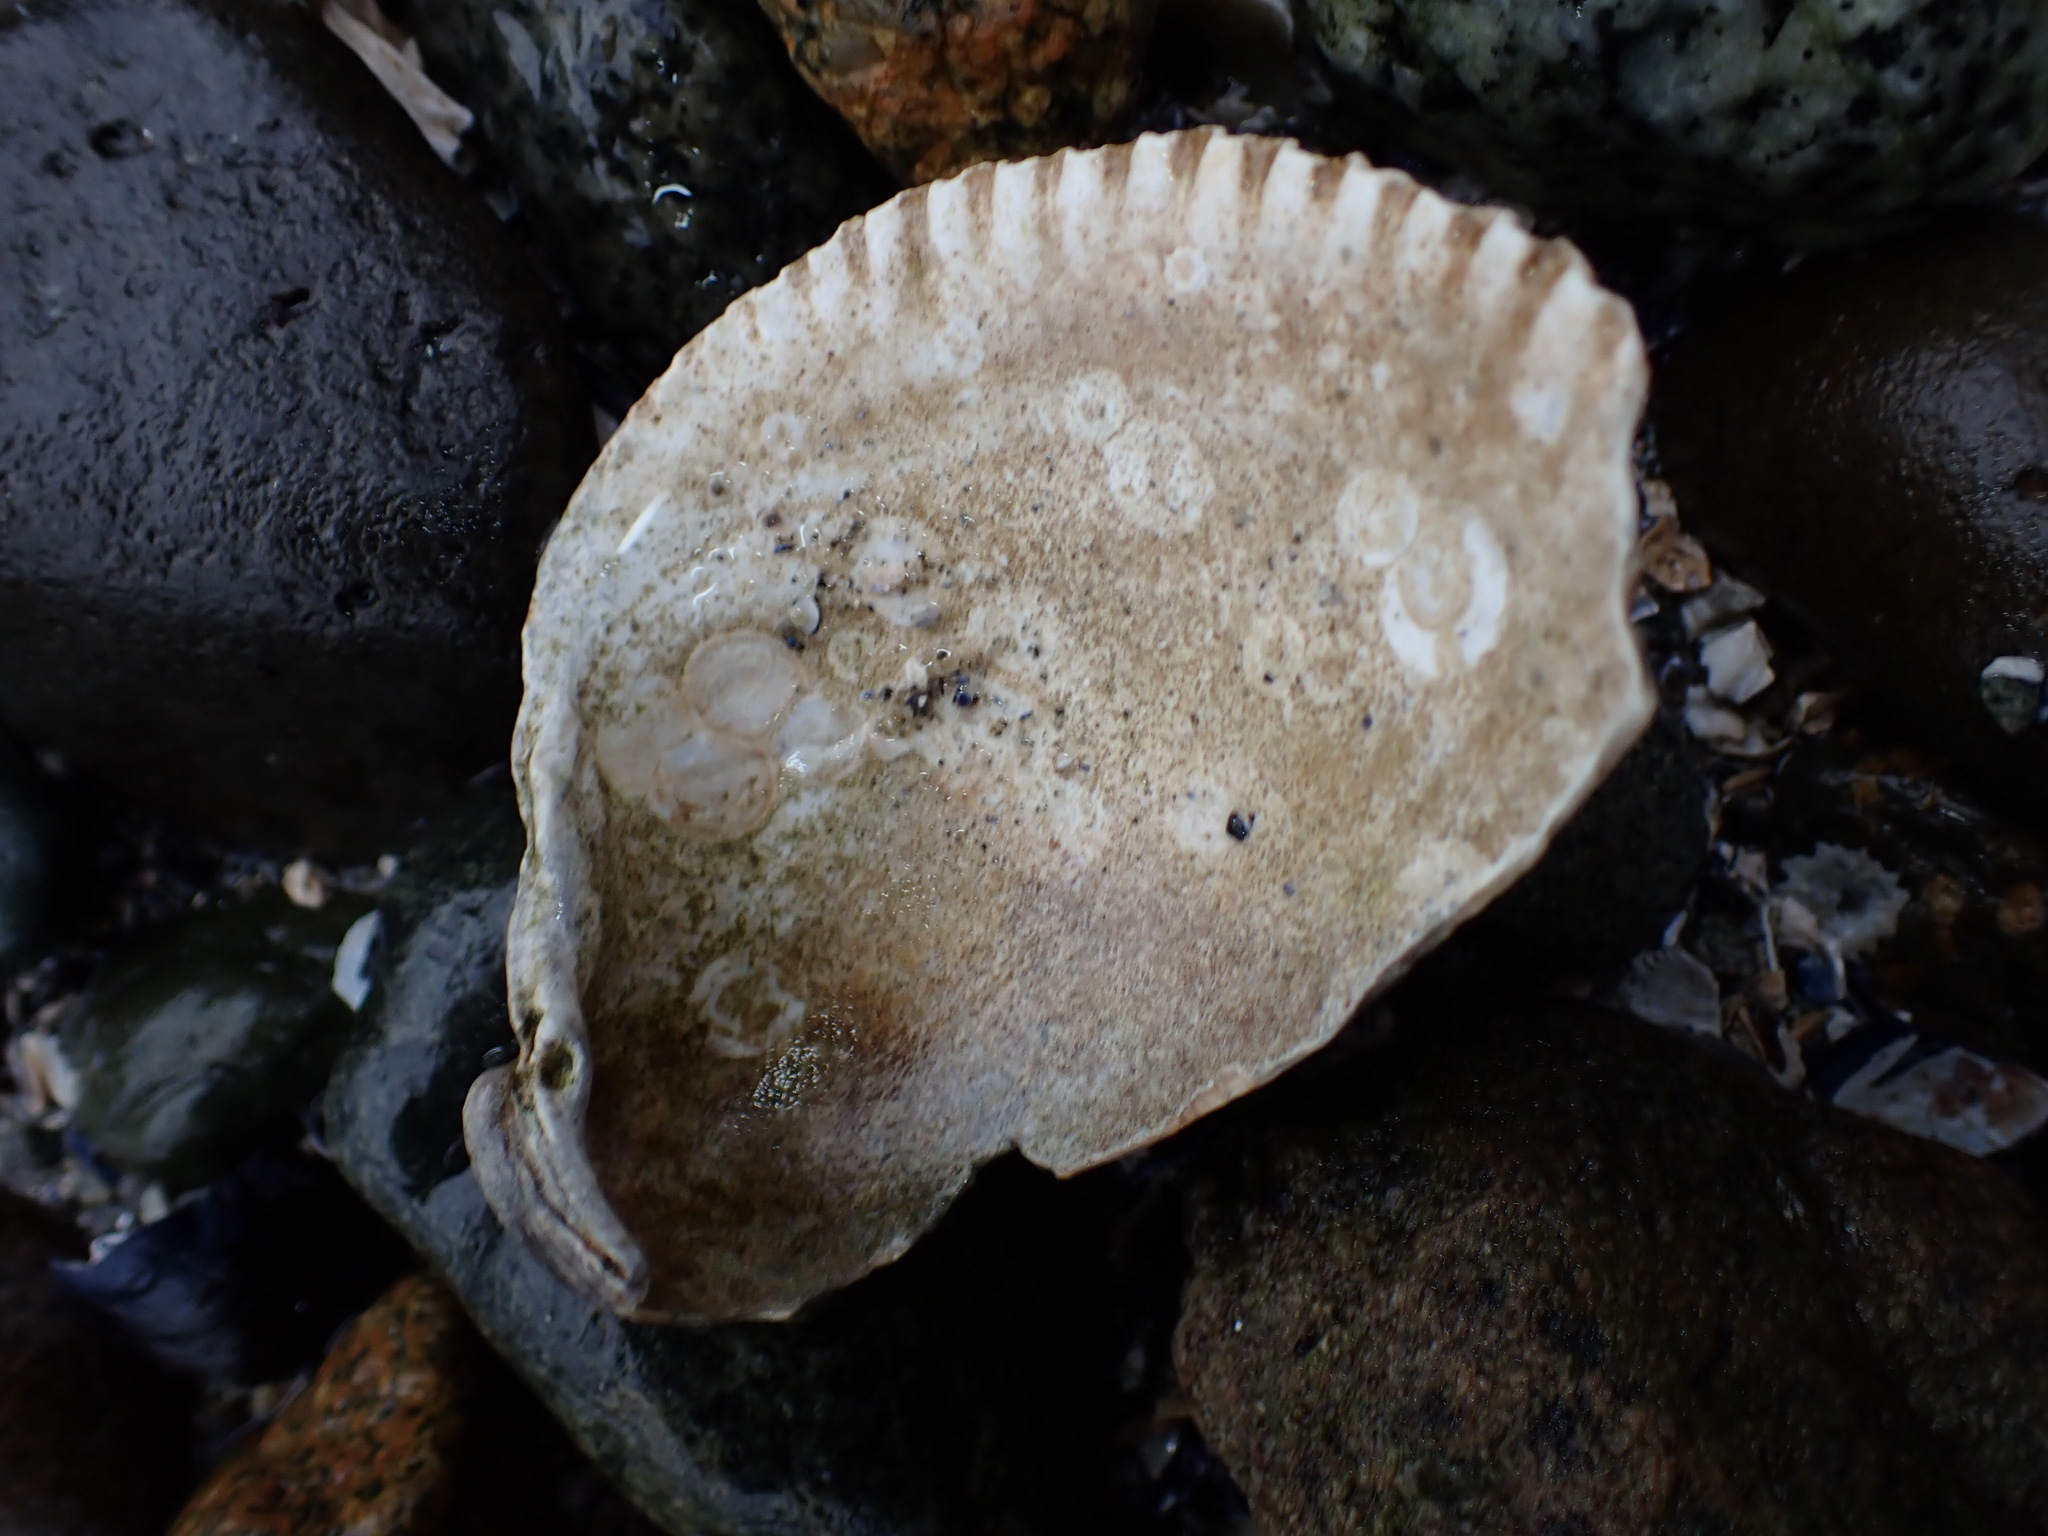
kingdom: Animalia
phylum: Mollusca
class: Bivalvia
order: Cardiida
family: Cardiidae
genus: Clinocardium
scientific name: Clinocardium nuttallii
